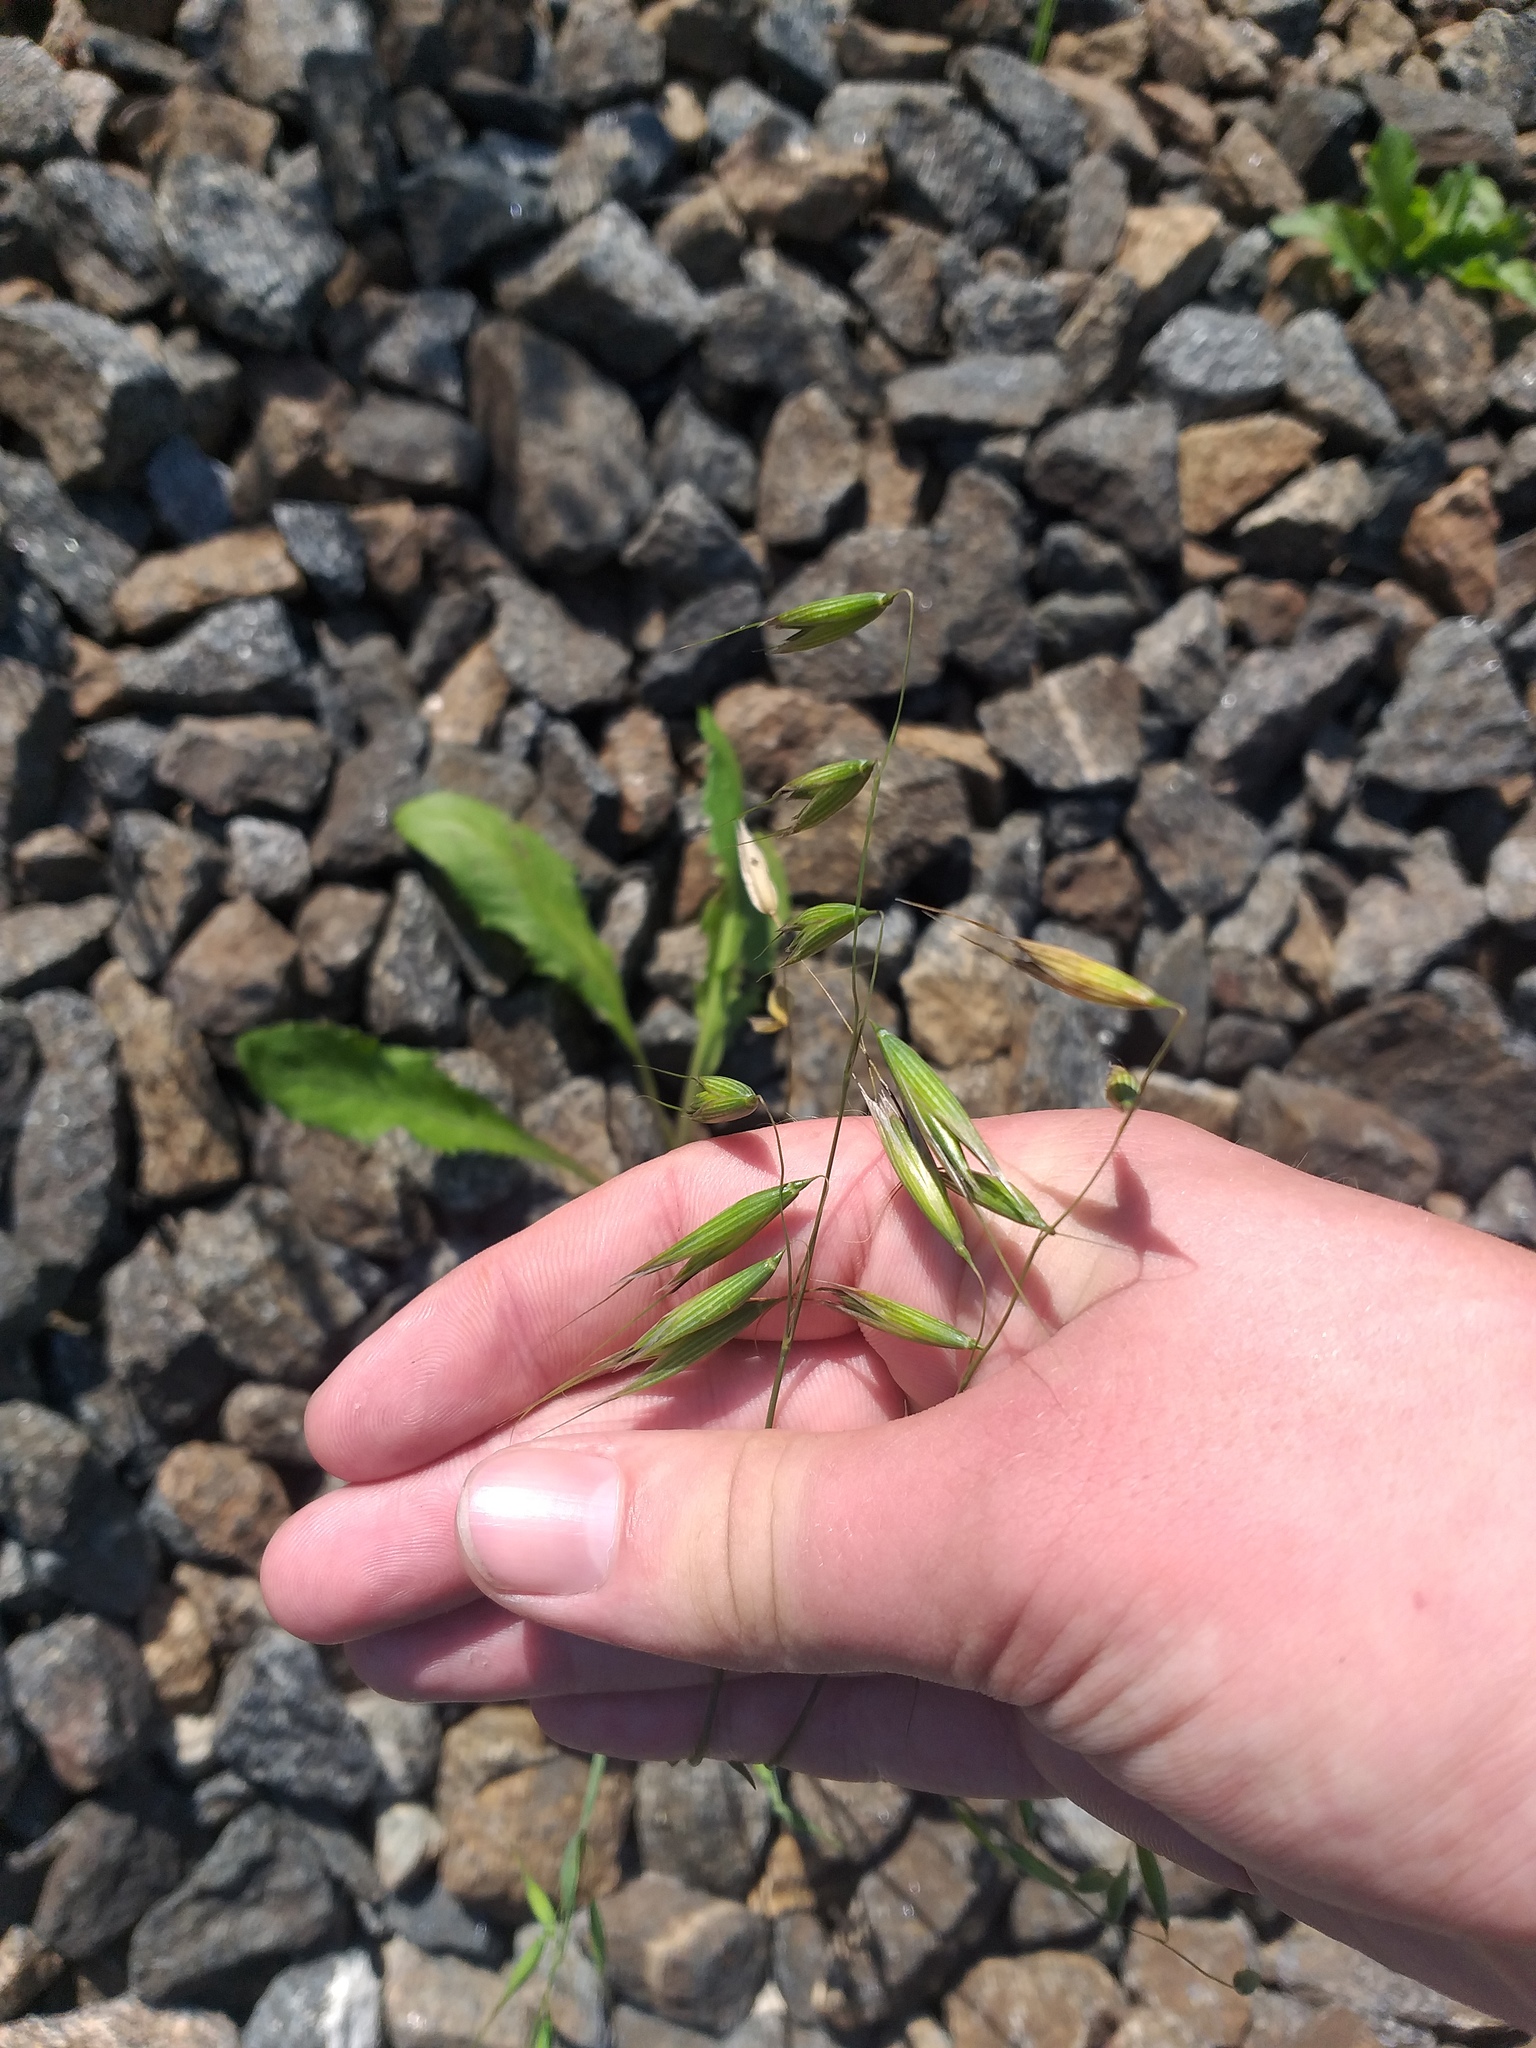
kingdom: Plantae
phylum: Tracheophyta
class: Liliopsida
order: Poales
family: Poaceae
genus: Avena
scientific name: Avena fatua
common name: Wild oat
